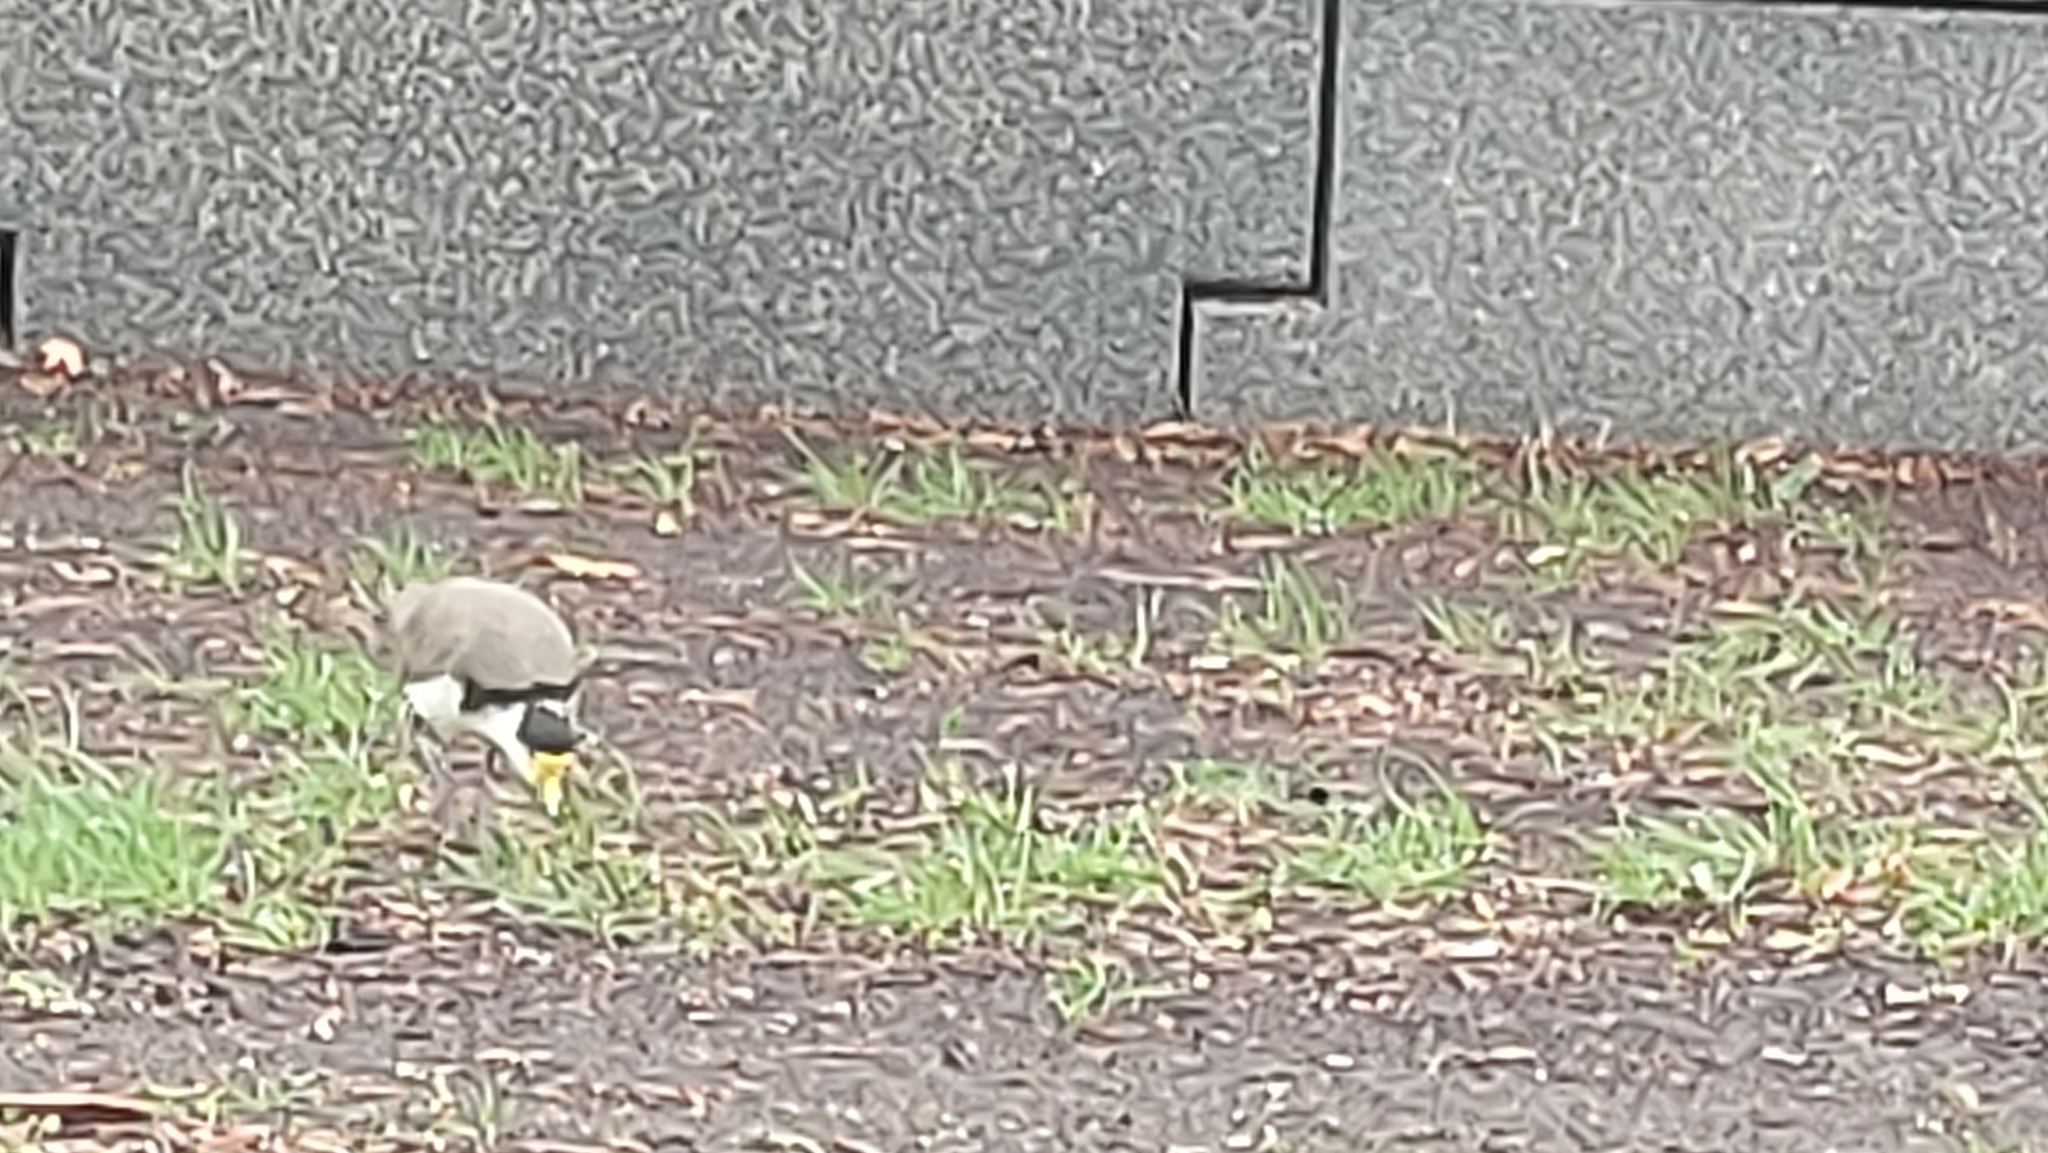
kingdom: Animalia
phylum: Chordata
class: Aves
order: Charadriiformes
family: Charadriidae
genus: Vanellus
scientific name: Vanellus miles
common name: Masked lapwing
